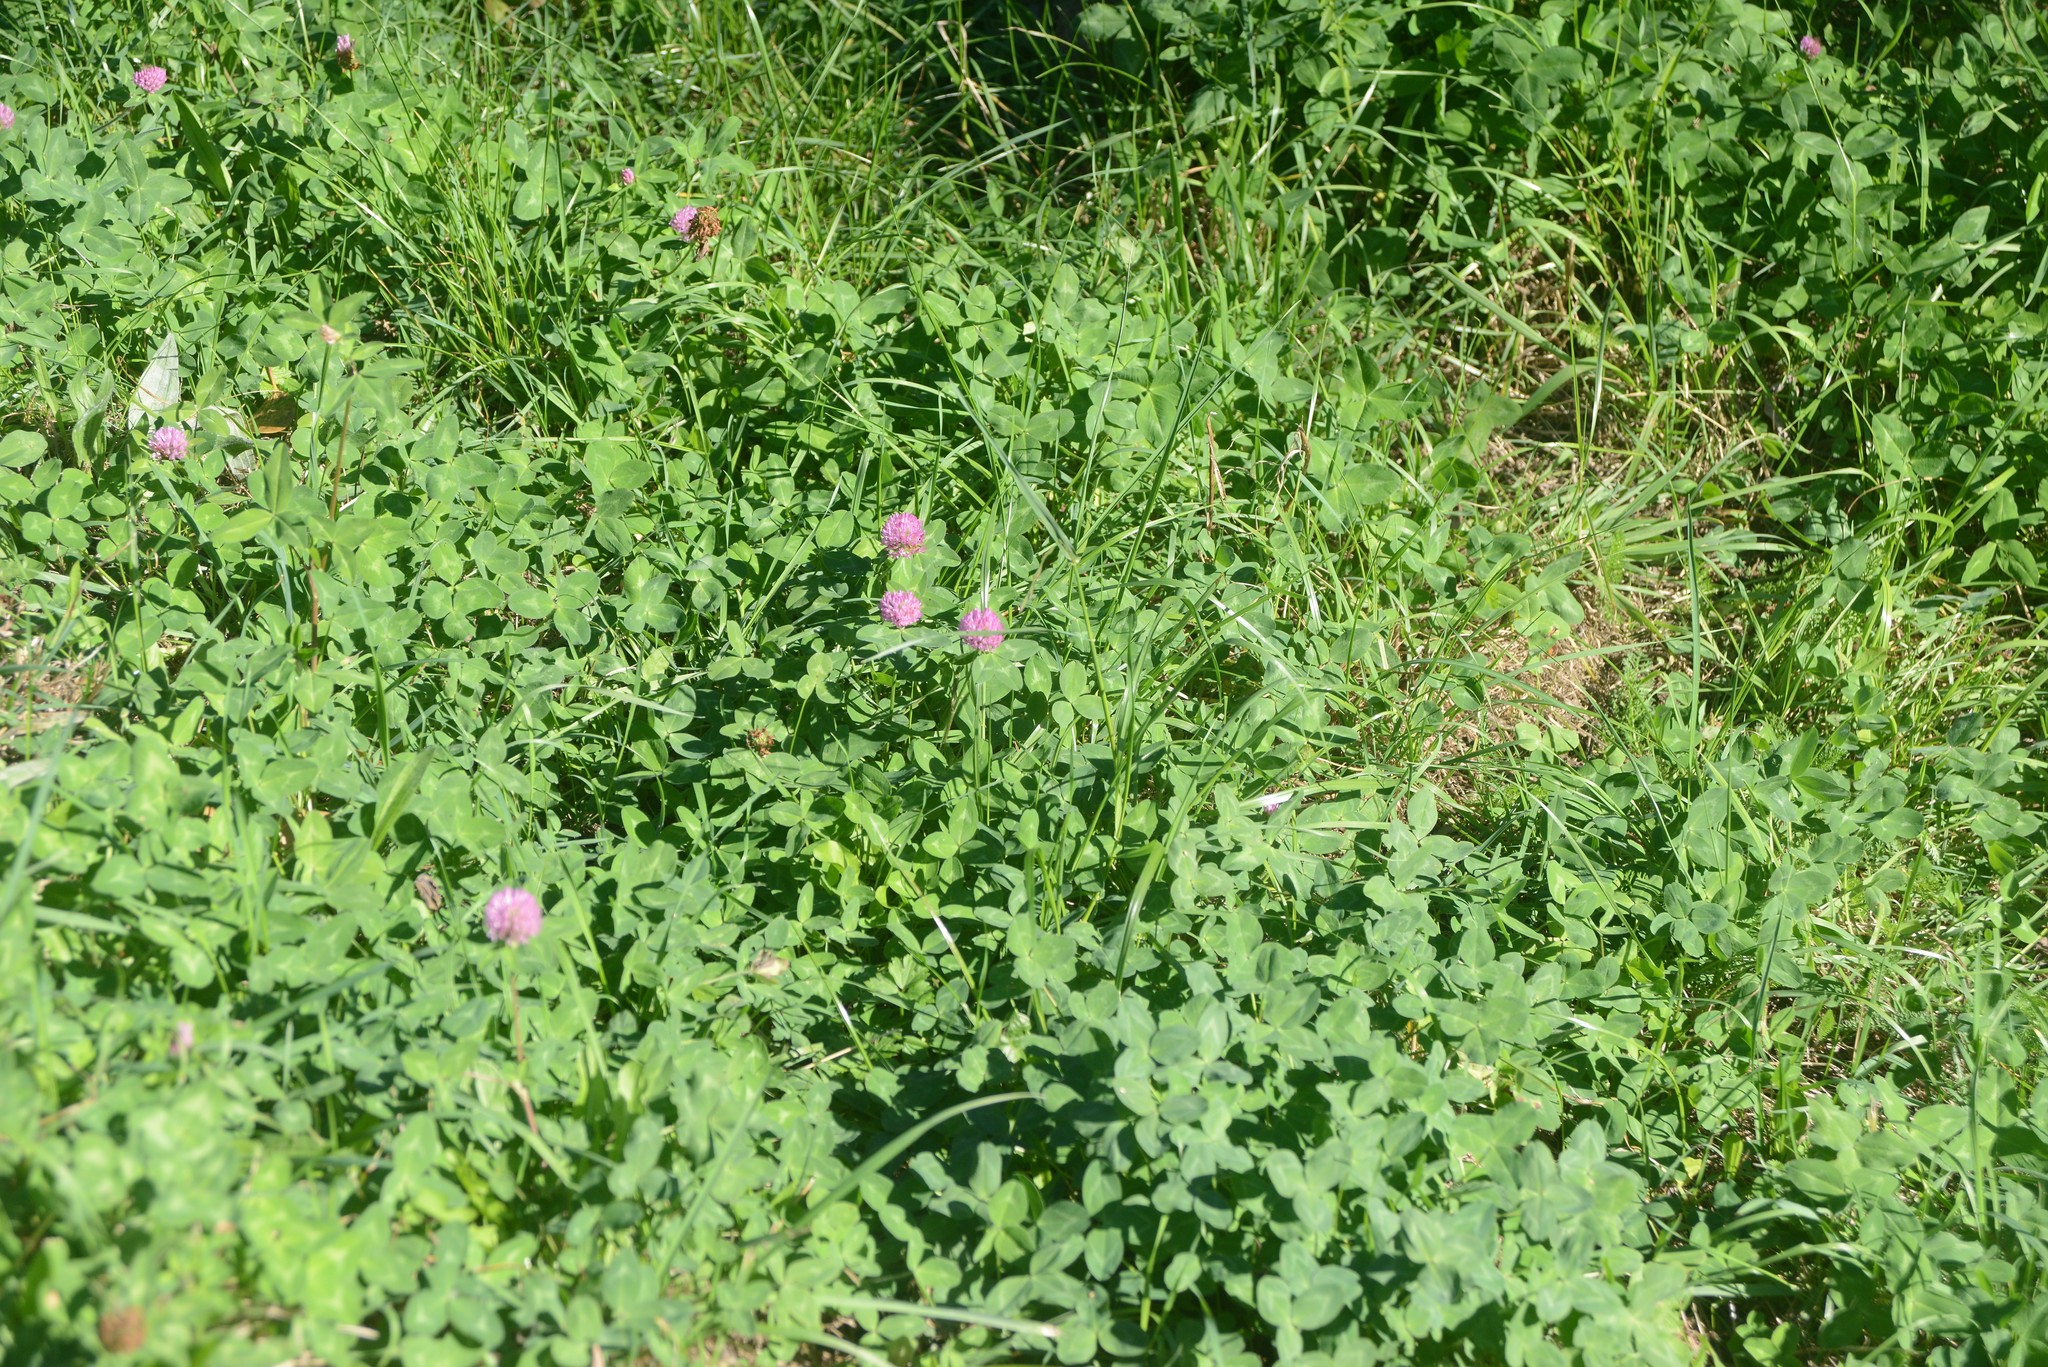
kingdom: Plantae
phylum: Tracheophyta
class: Magnoliopsida
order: Fabales
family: Fabaceae
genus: Trifolium
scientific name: Trifolium pratense
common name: Red clover
